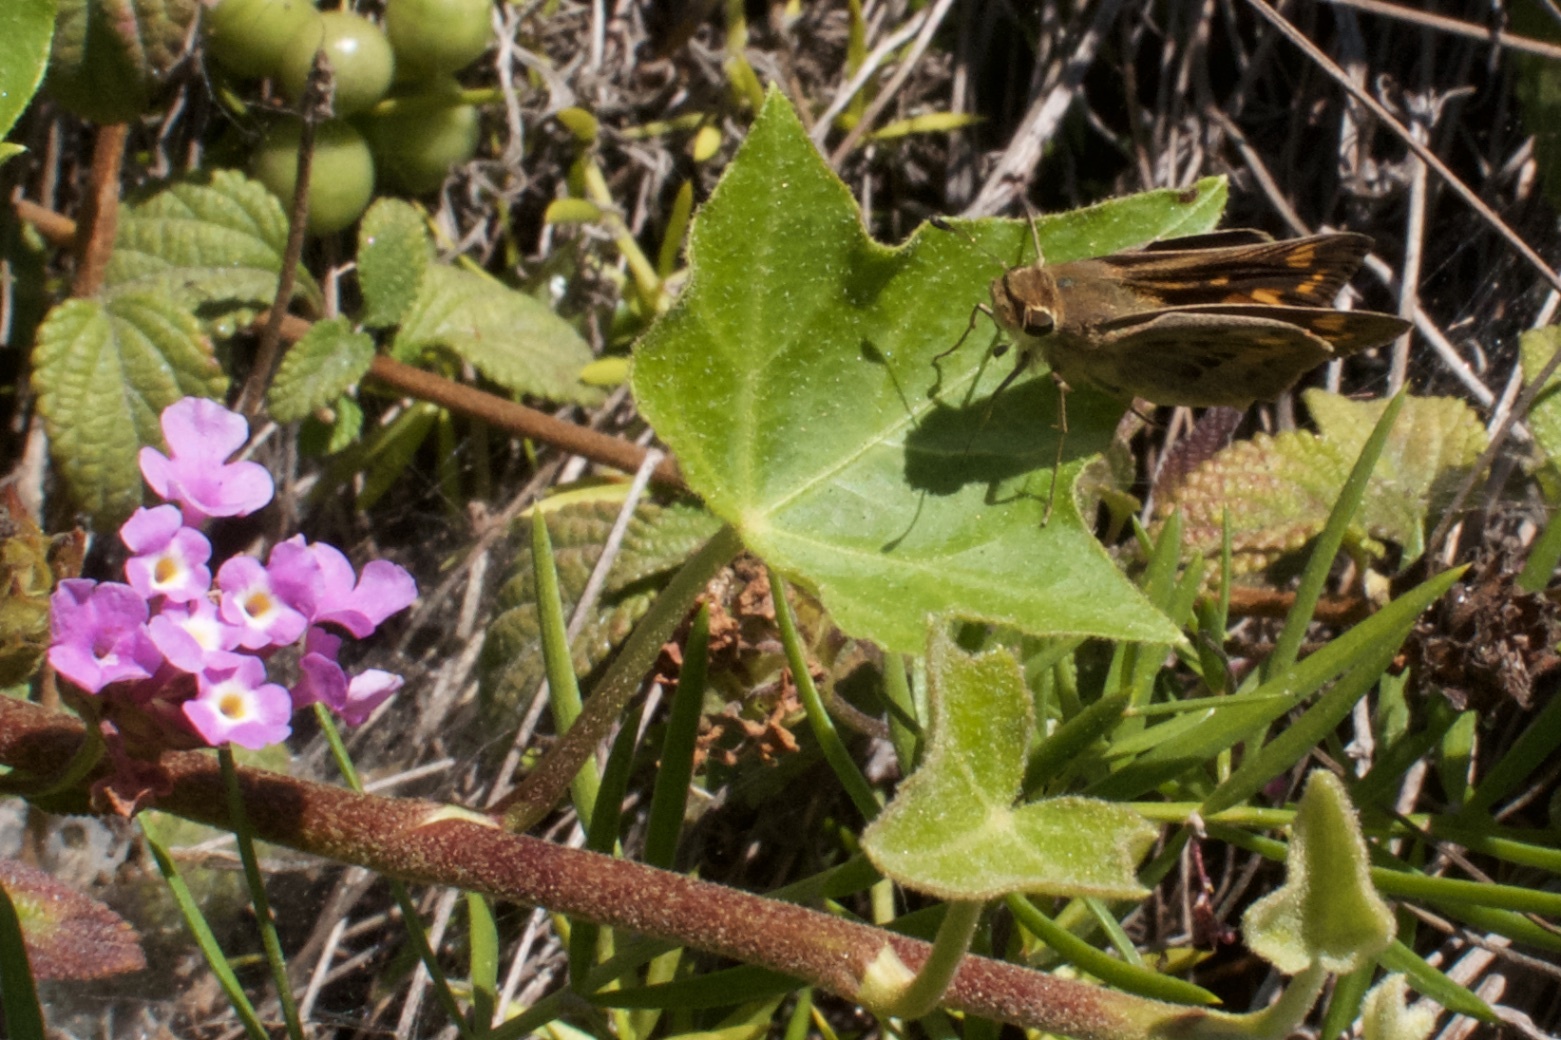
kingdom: Animalia
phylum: Arthropoda
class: Insecta
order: Lepidoptera
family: Hesperiidae
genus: Hylephila
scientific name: Hylephila phyleus
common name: Fiery skipper
